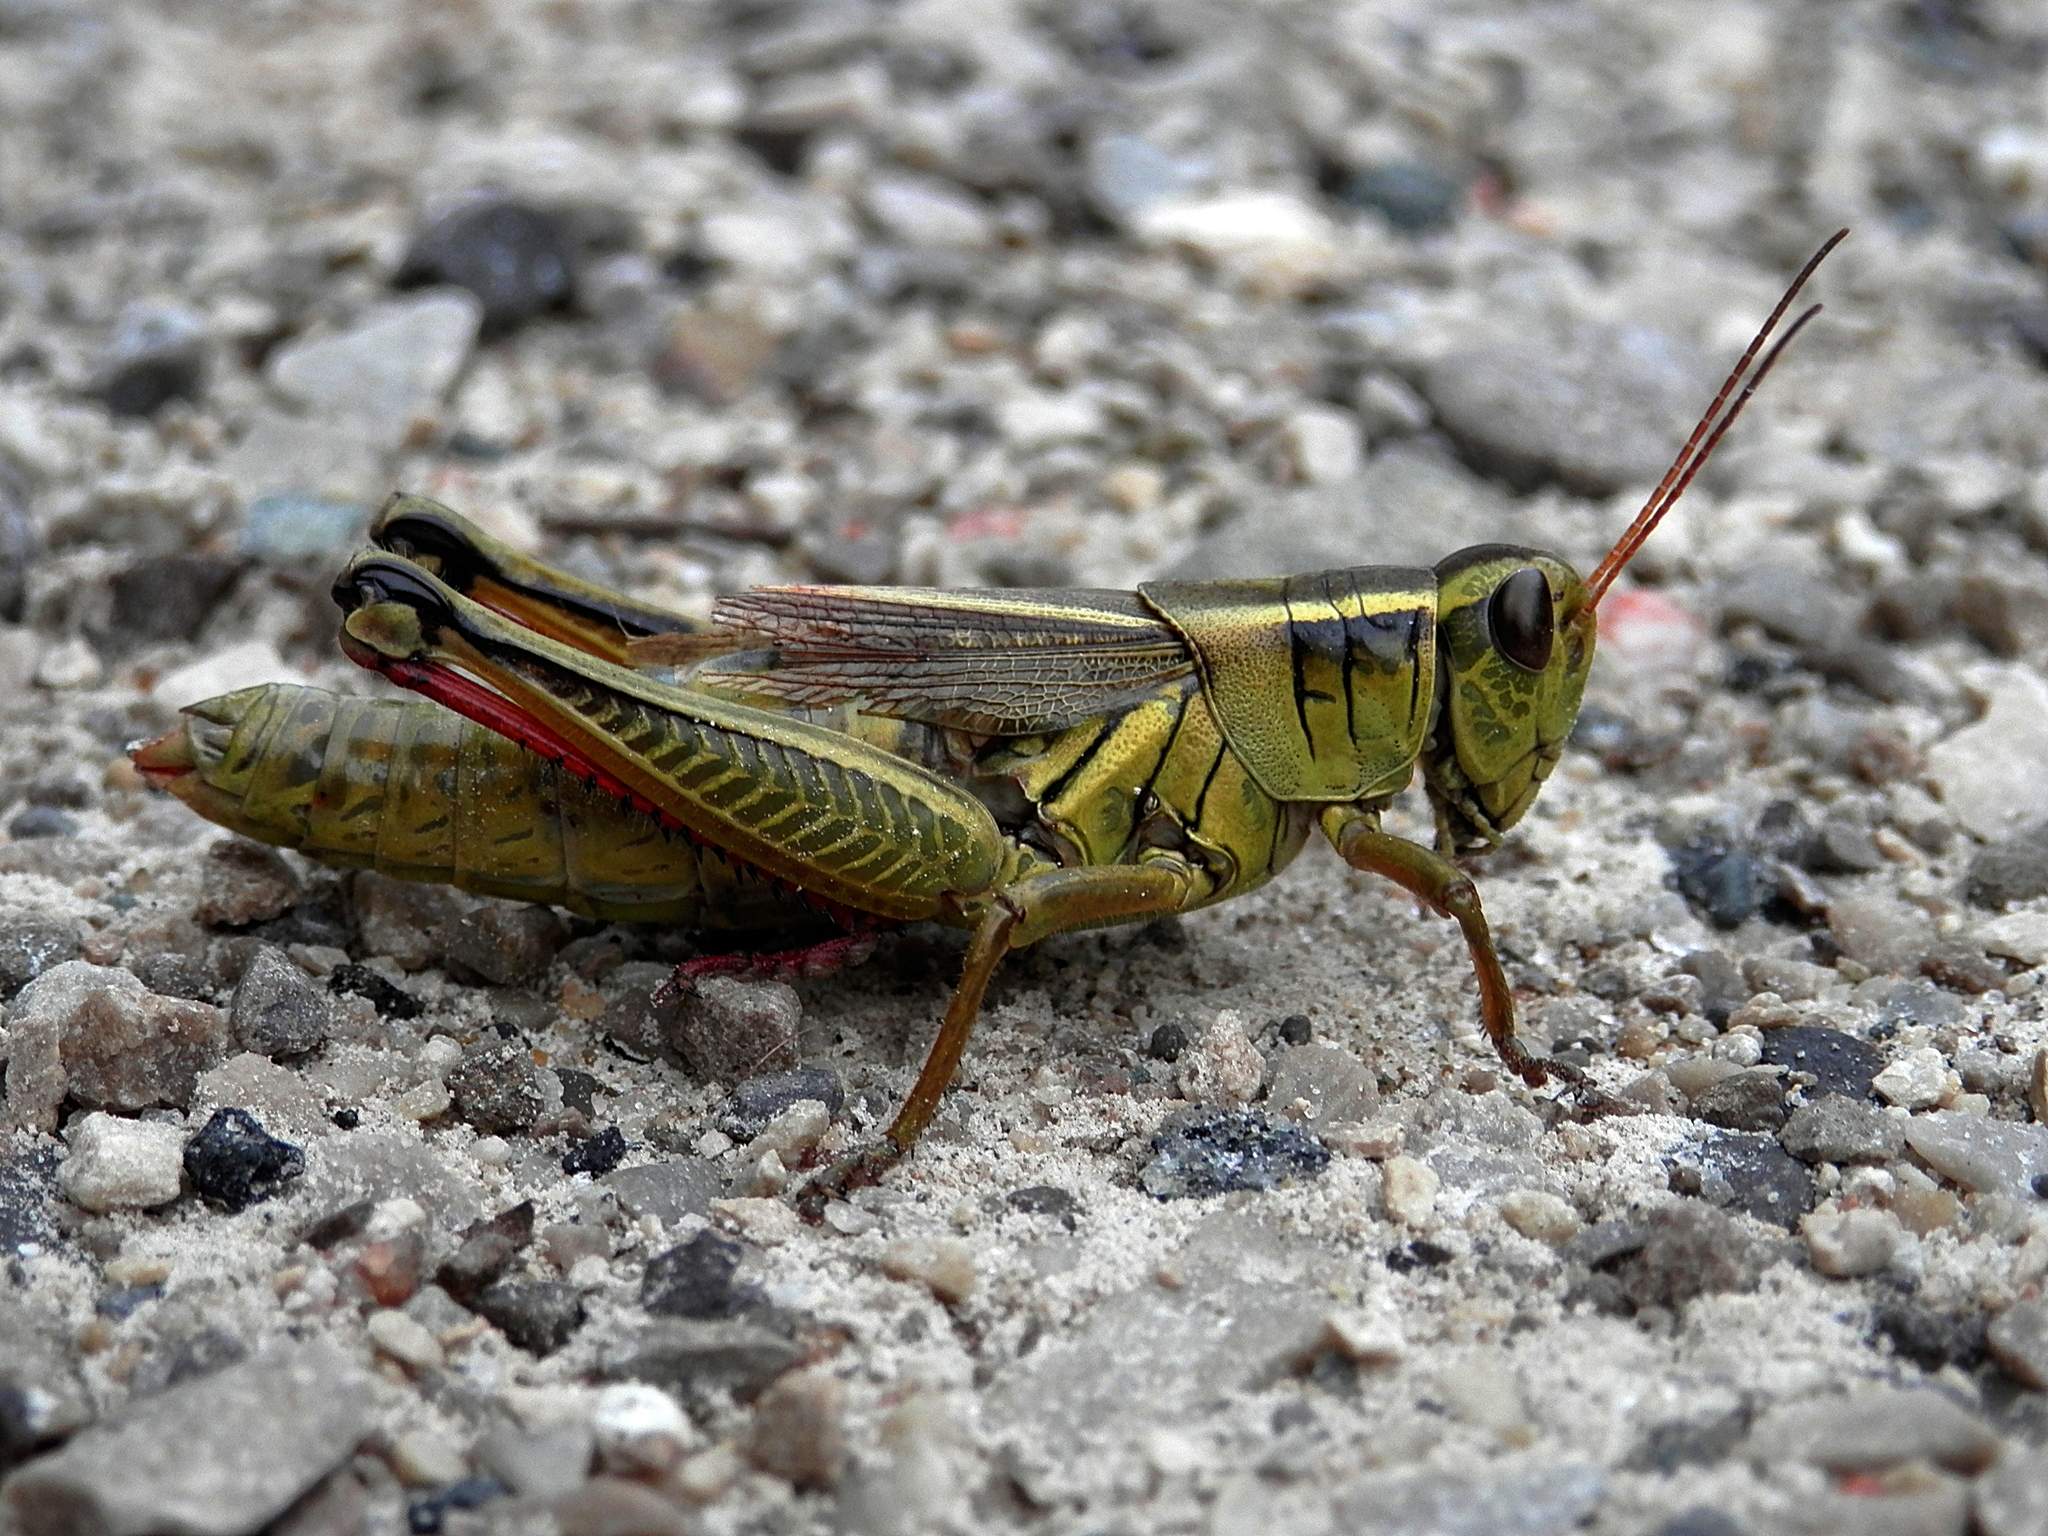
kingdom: Animalia
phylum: Arthropoda
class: Insecta
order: Orthoptera
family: Acrididae
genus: Melanoplus
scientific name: Melanoplus bivittatus
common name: Two-striped grasshopper
